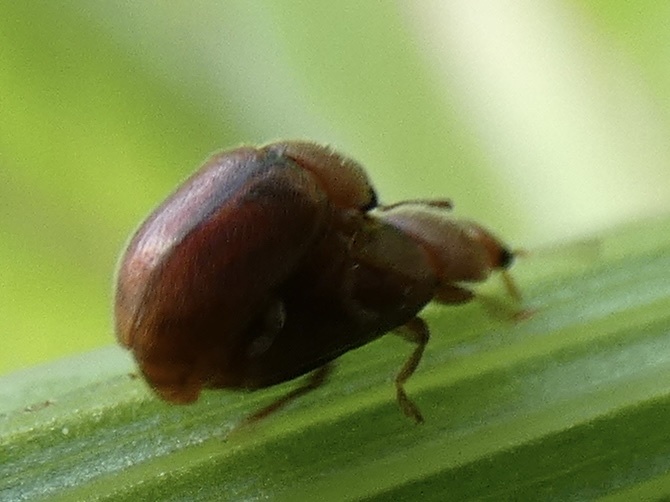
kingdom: Animalia
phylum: Arthropoda
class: Insecta
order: Coleoptera
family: Coccinellidae
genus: Coccidula
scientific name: Coccidula rufa
